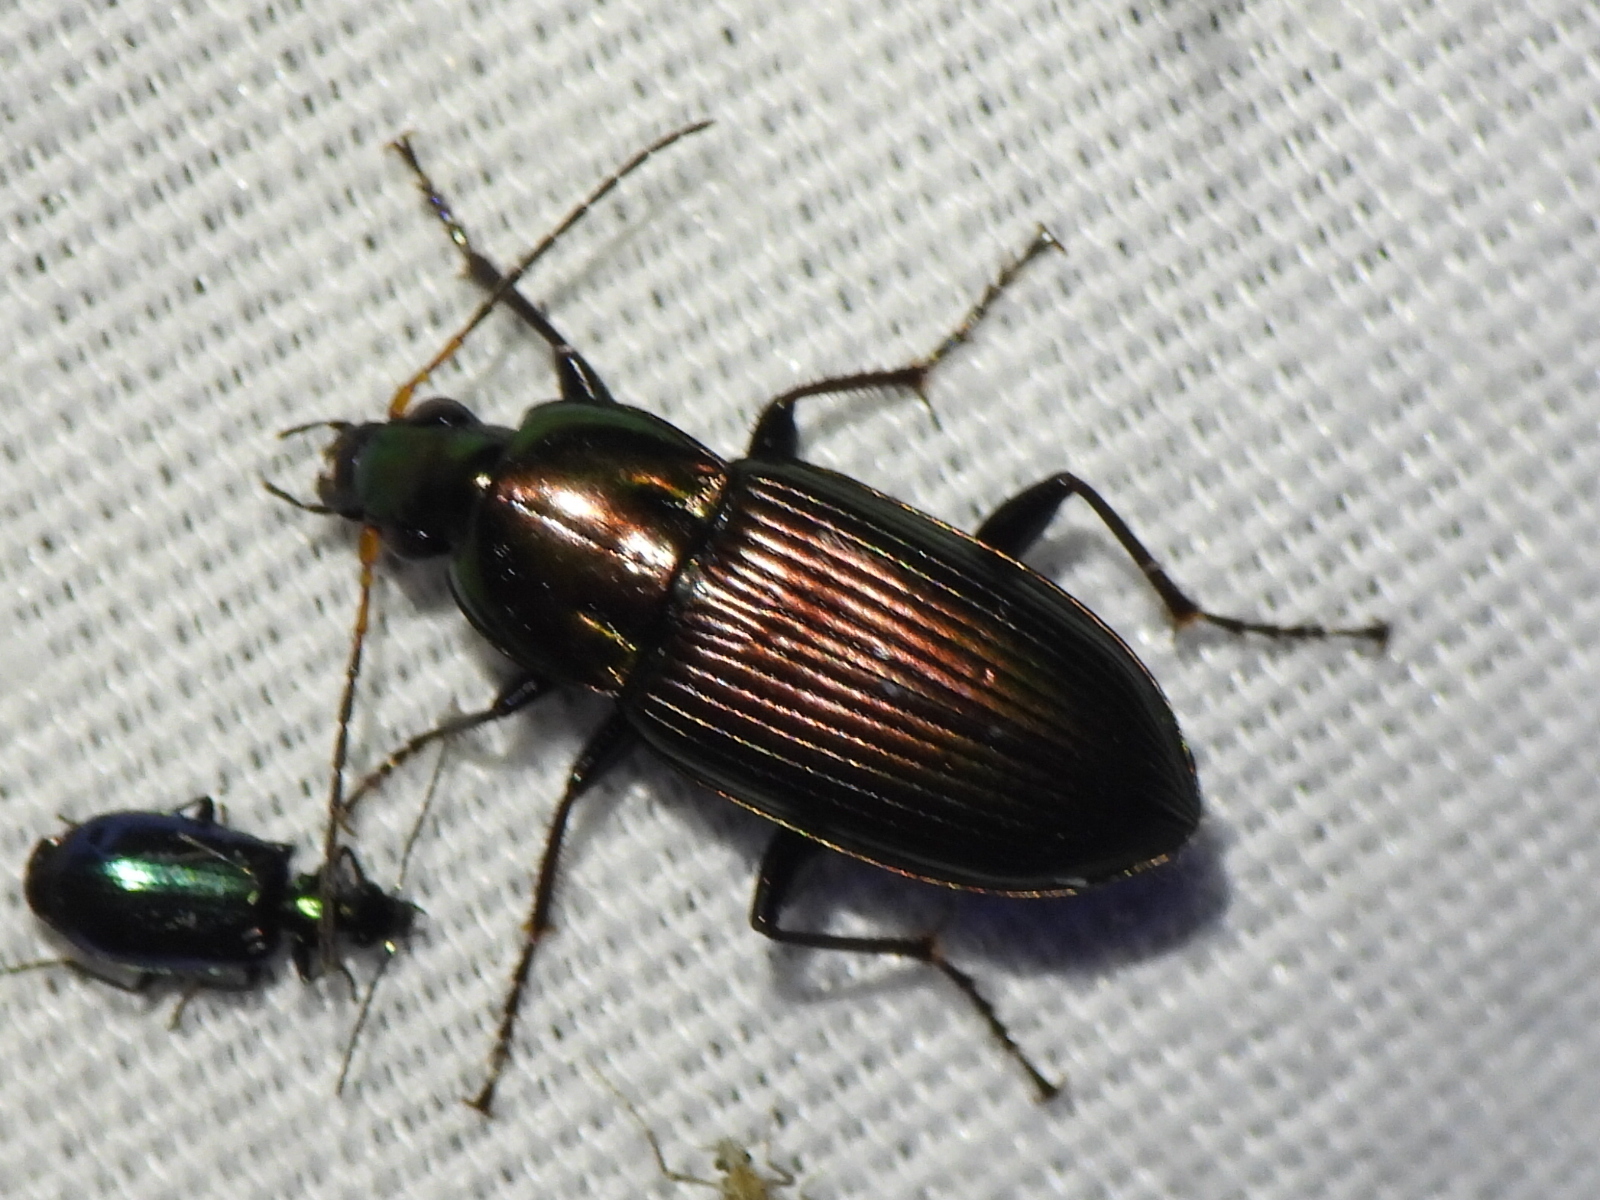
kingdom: Animalia
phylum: Arthropoda
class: Insecta
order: Coleoptera
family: Carabidae
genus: Poecilus
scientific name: Poecilus chalcites
